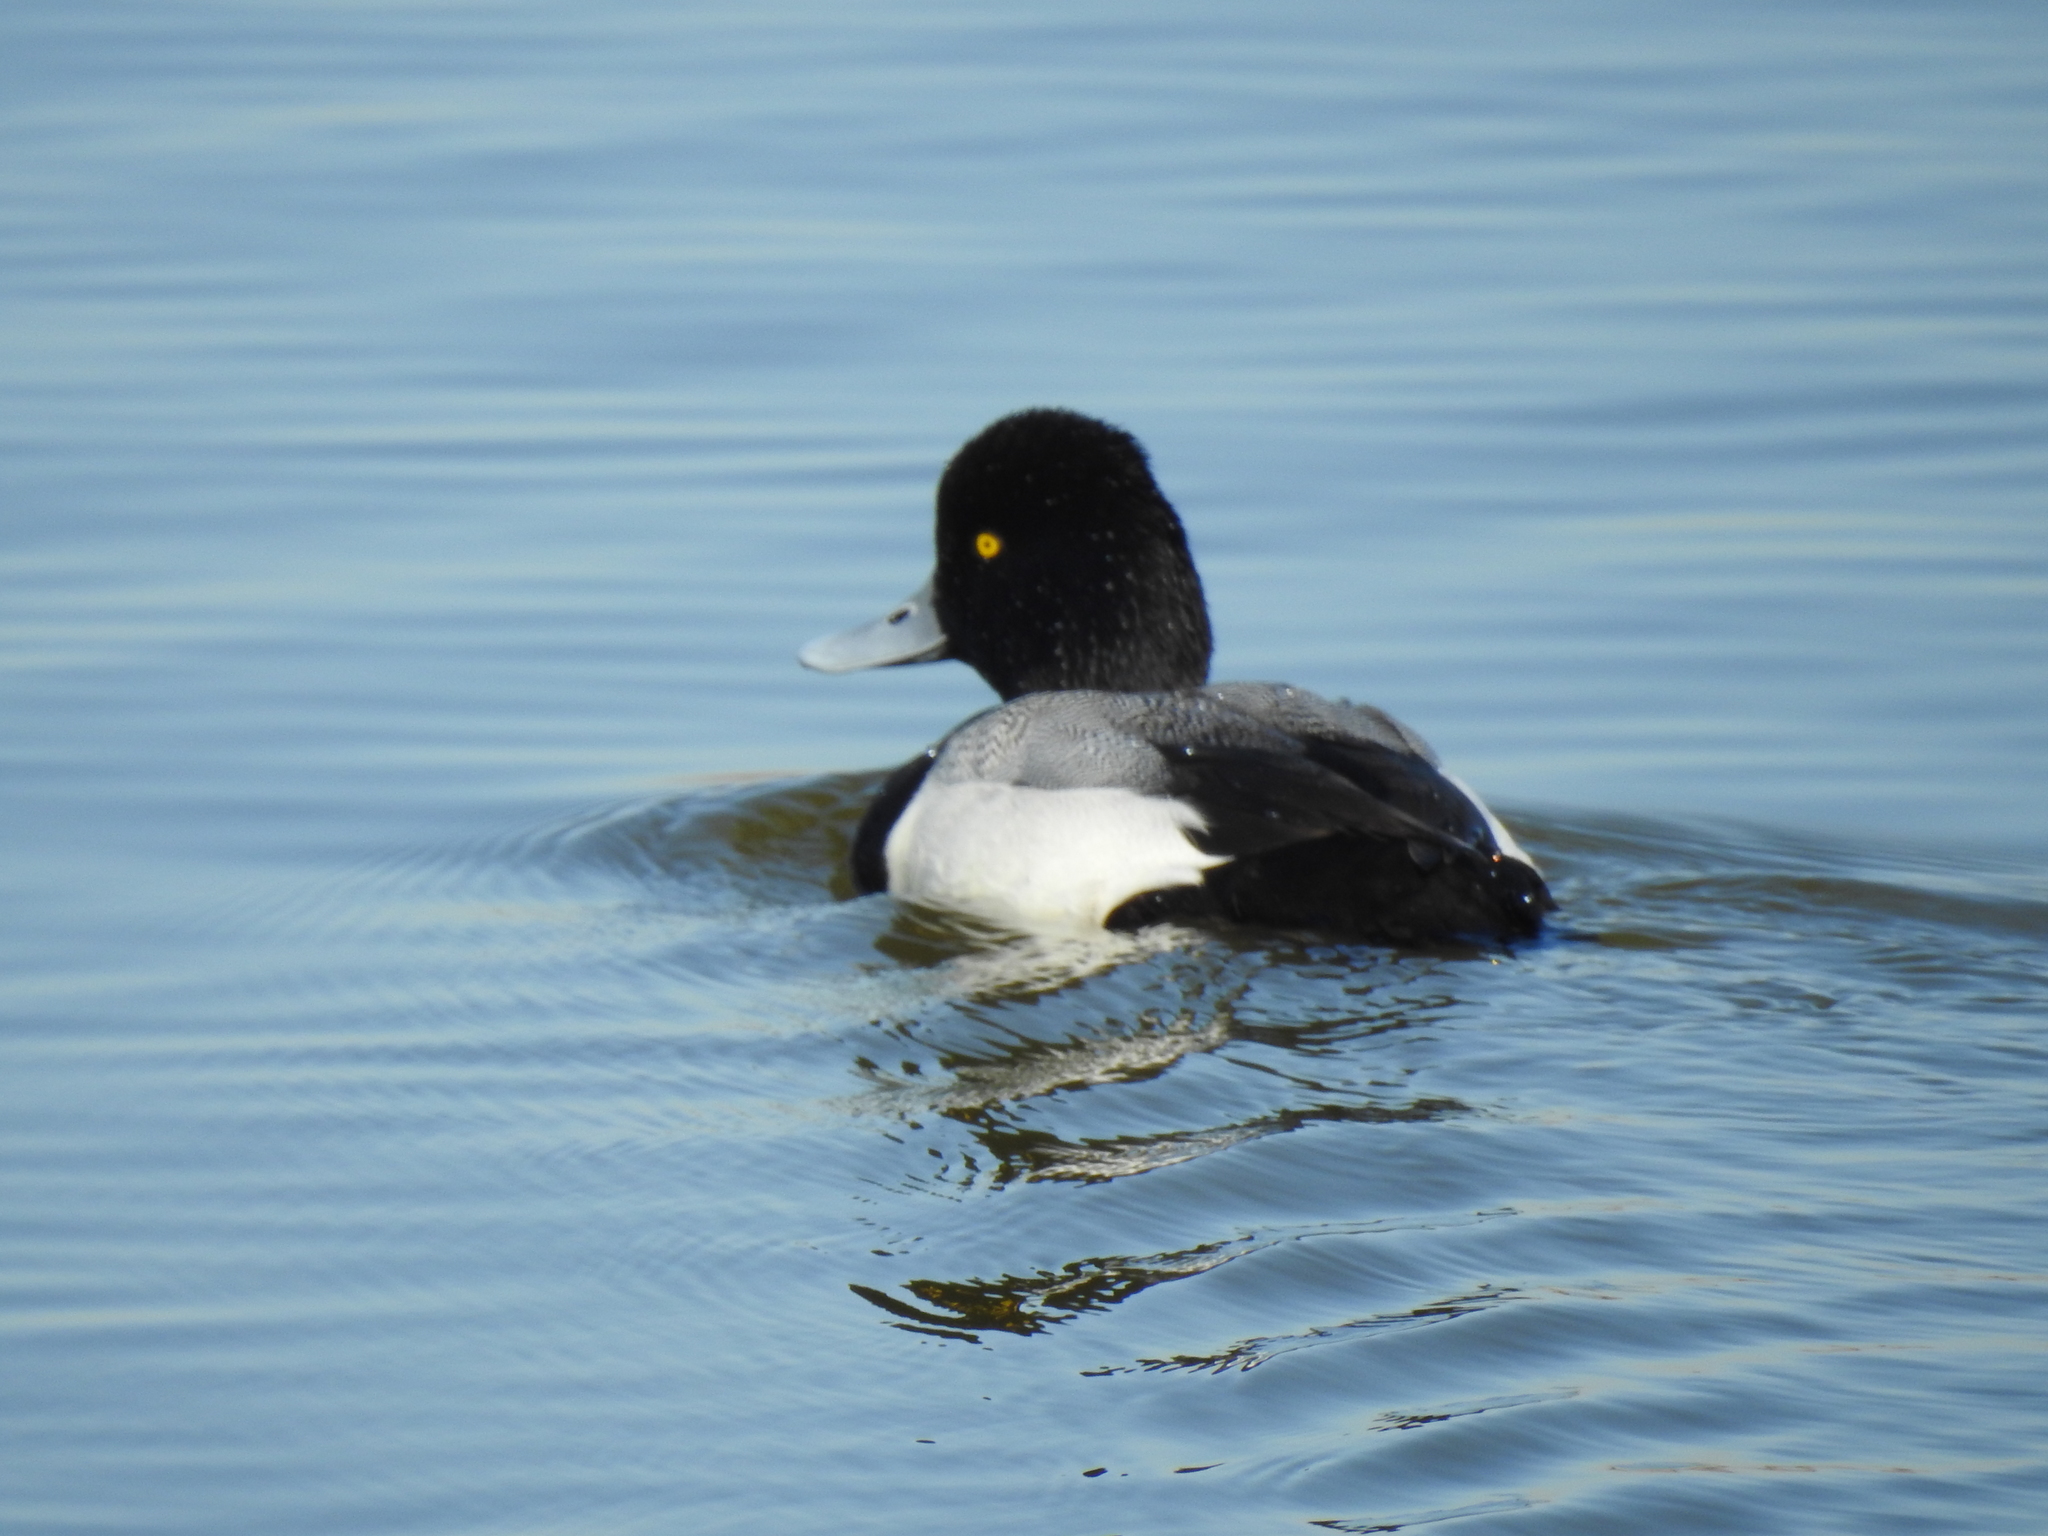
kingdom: Animalia
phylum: Chordata
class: Aves
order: Anseriformes
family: Anatidae
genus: Aythya
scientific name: Aythya affinis
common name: Lesser scaup
